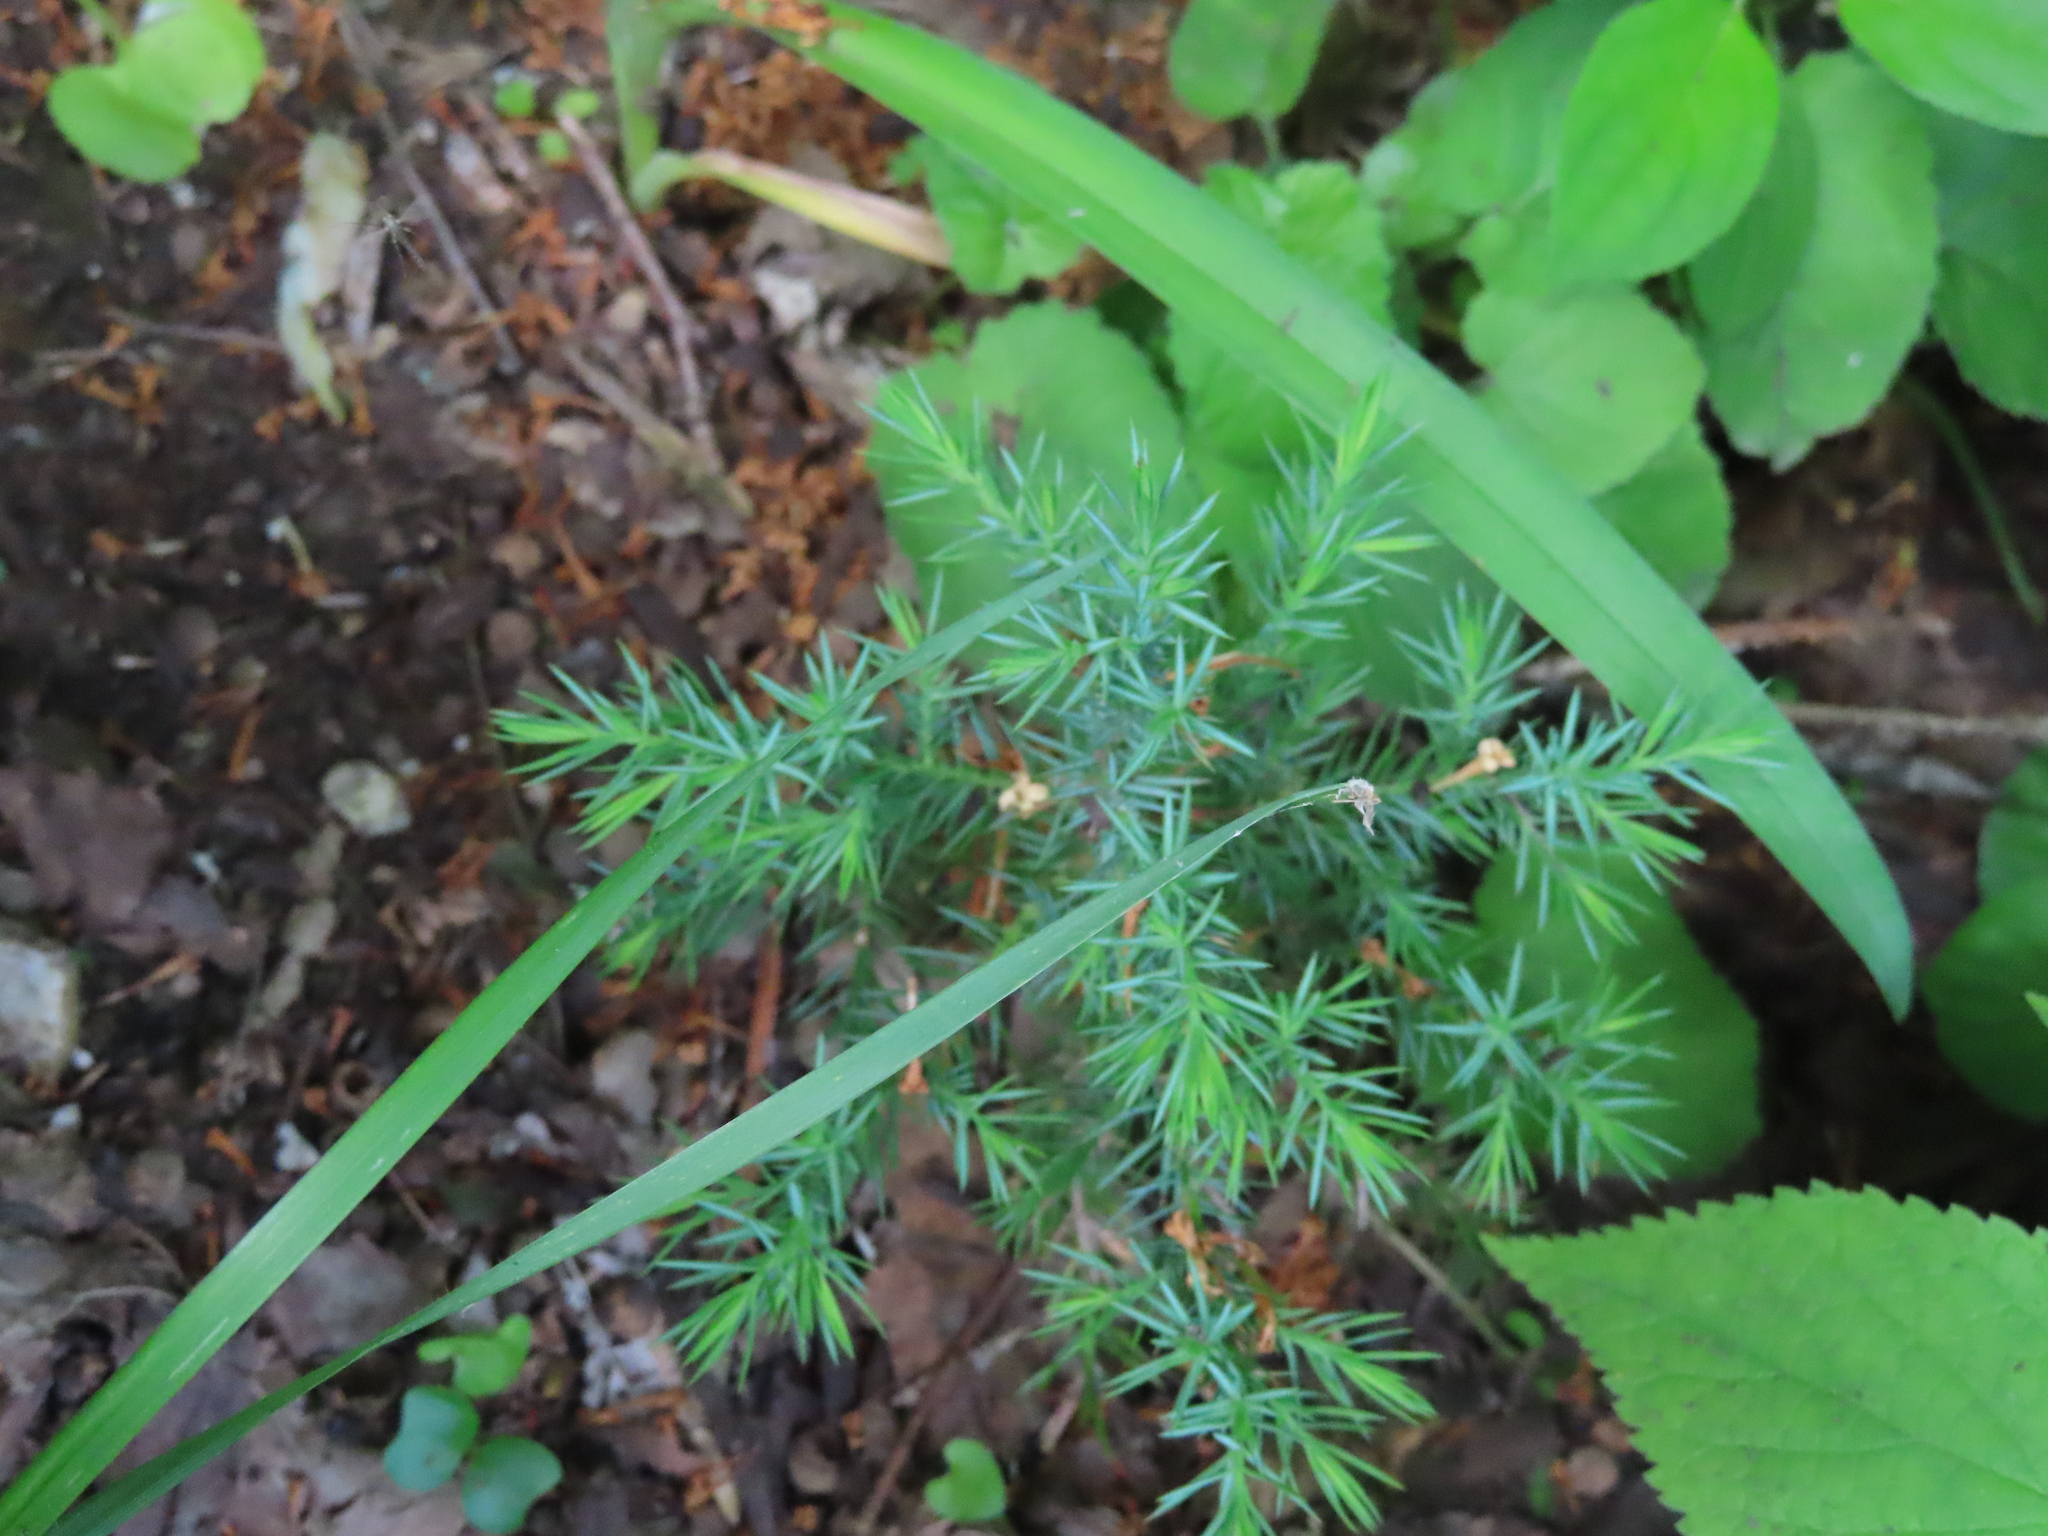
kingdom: Plantae
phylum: Tracheophyta
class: Pinopsida
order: Pinales
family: Cupressaceae
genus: Juniperus
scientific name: Juniperus virginiana
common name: Red juniper
